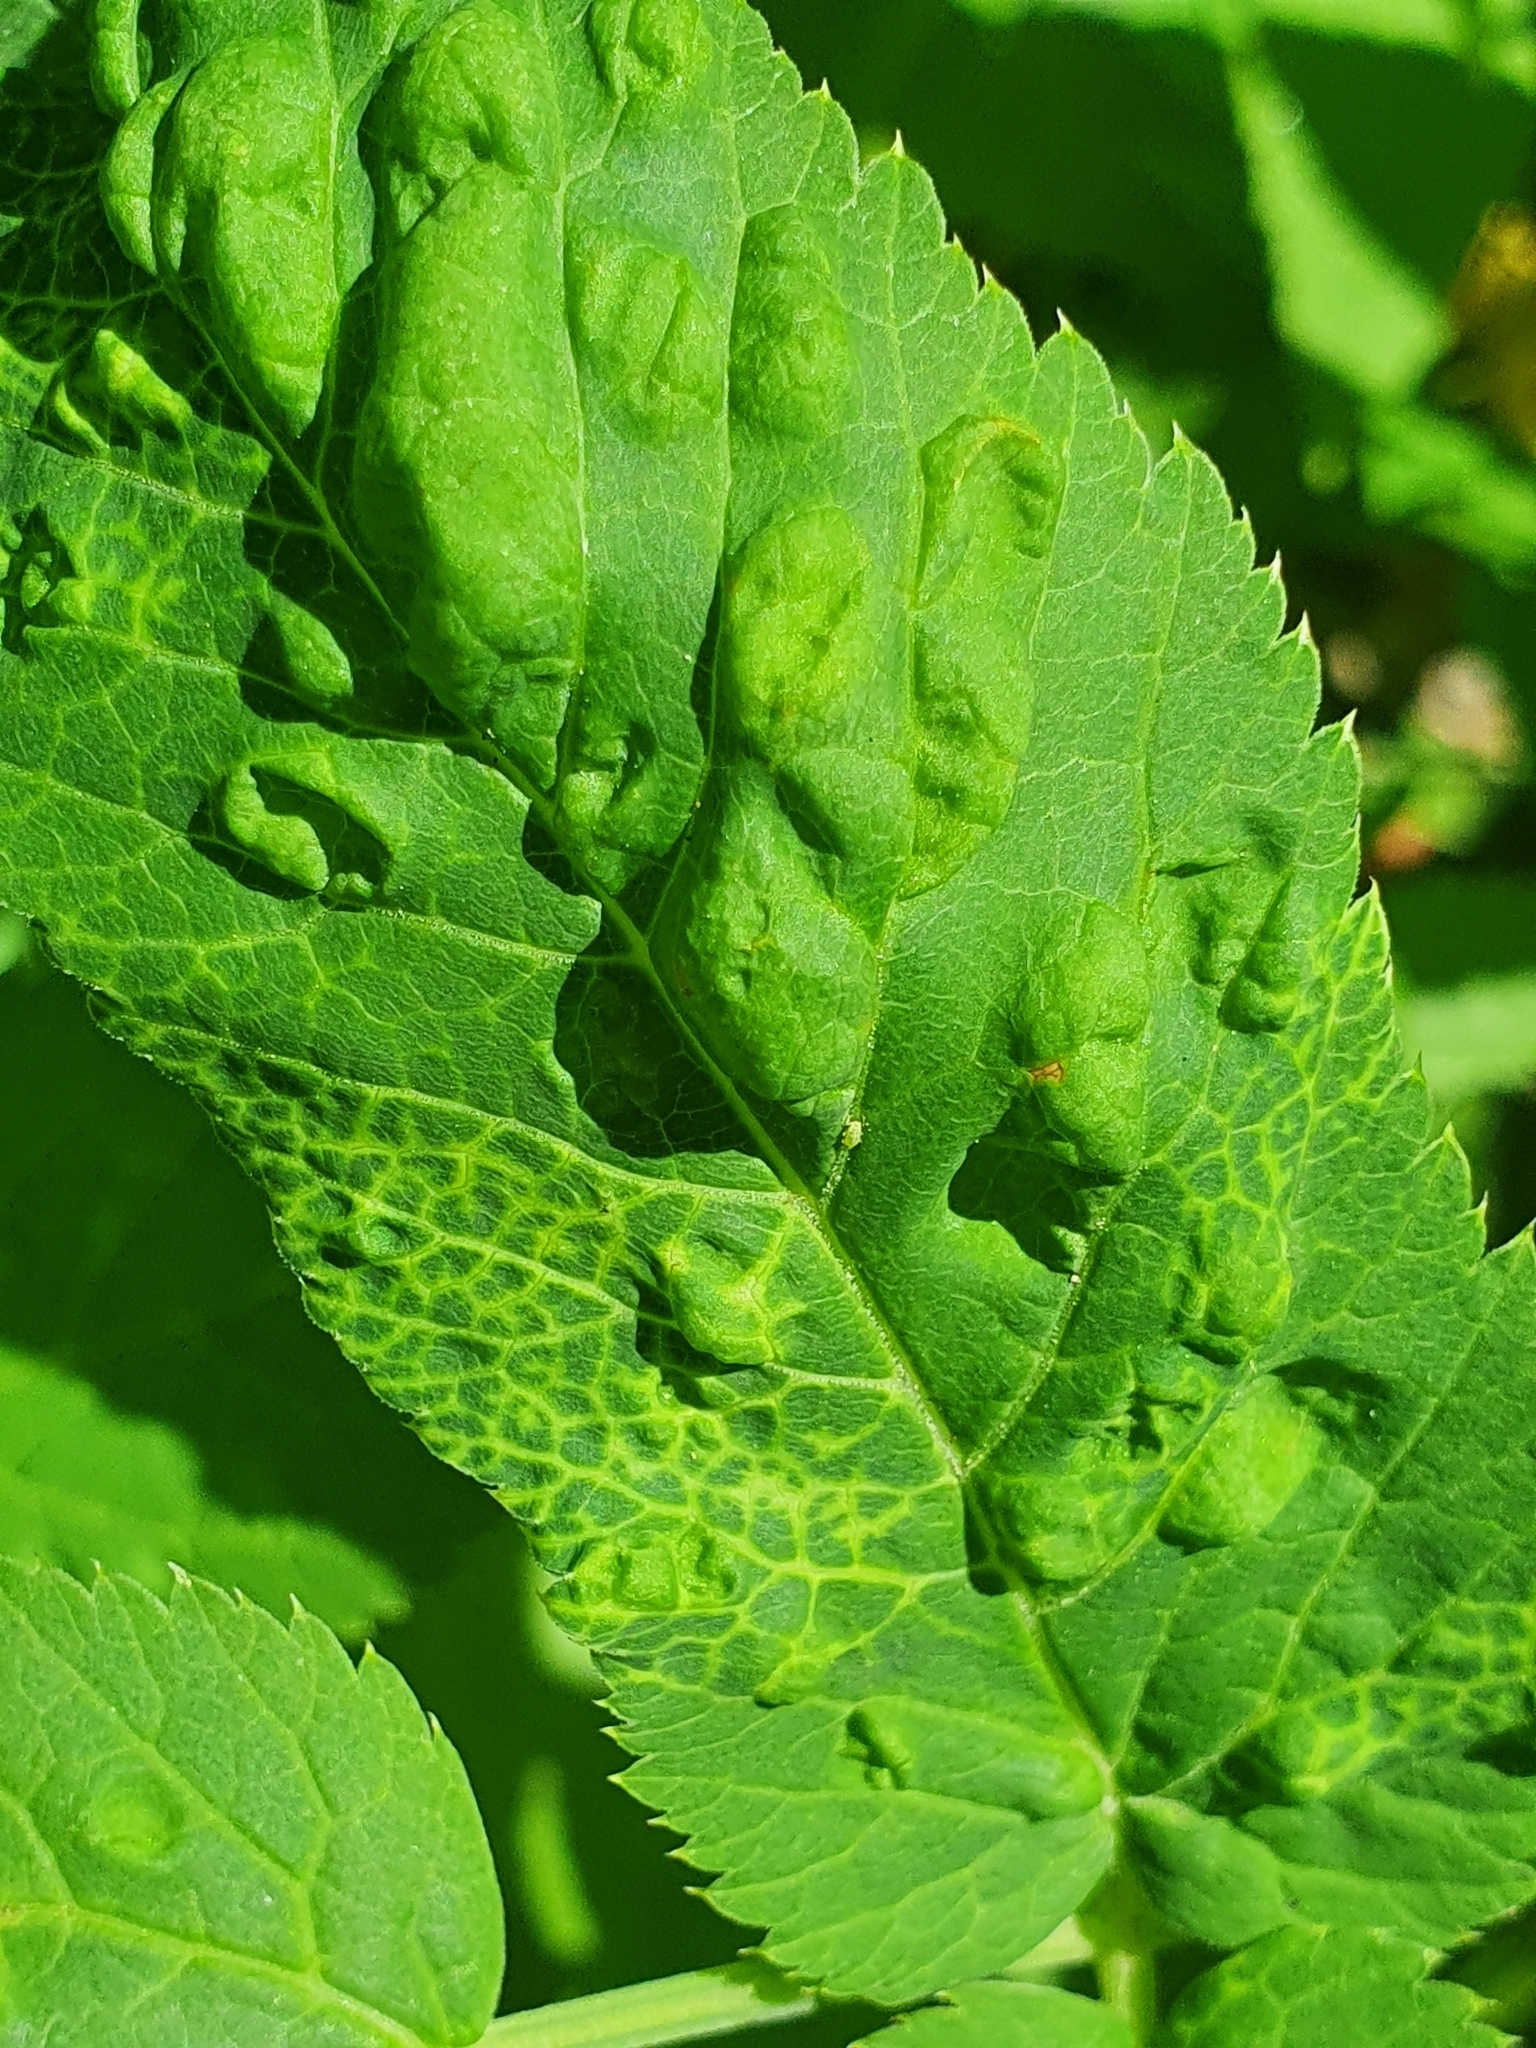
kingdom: Animalia
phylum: Arthropoda
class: Insecta
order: Hemiptera
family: Triozidae
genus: Trioza
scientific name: Trioza flavipennis
